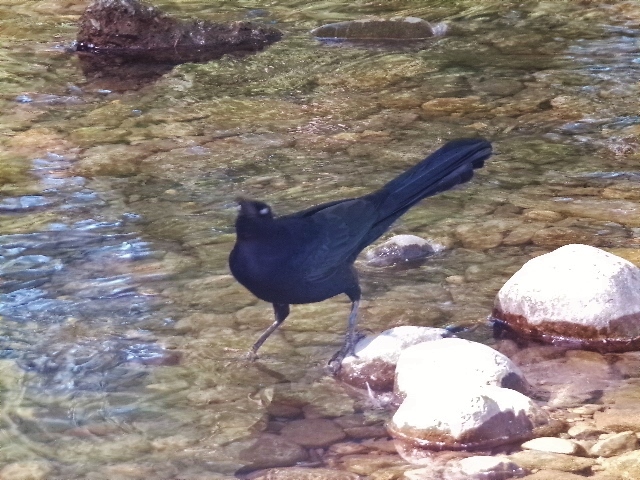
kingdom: Animalia
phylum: Chordata
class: Aves
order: Passeriformes
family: Icteridae
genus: Quiscalus
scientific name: Quiscalus mexicanus
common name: Great-tailed grackle
